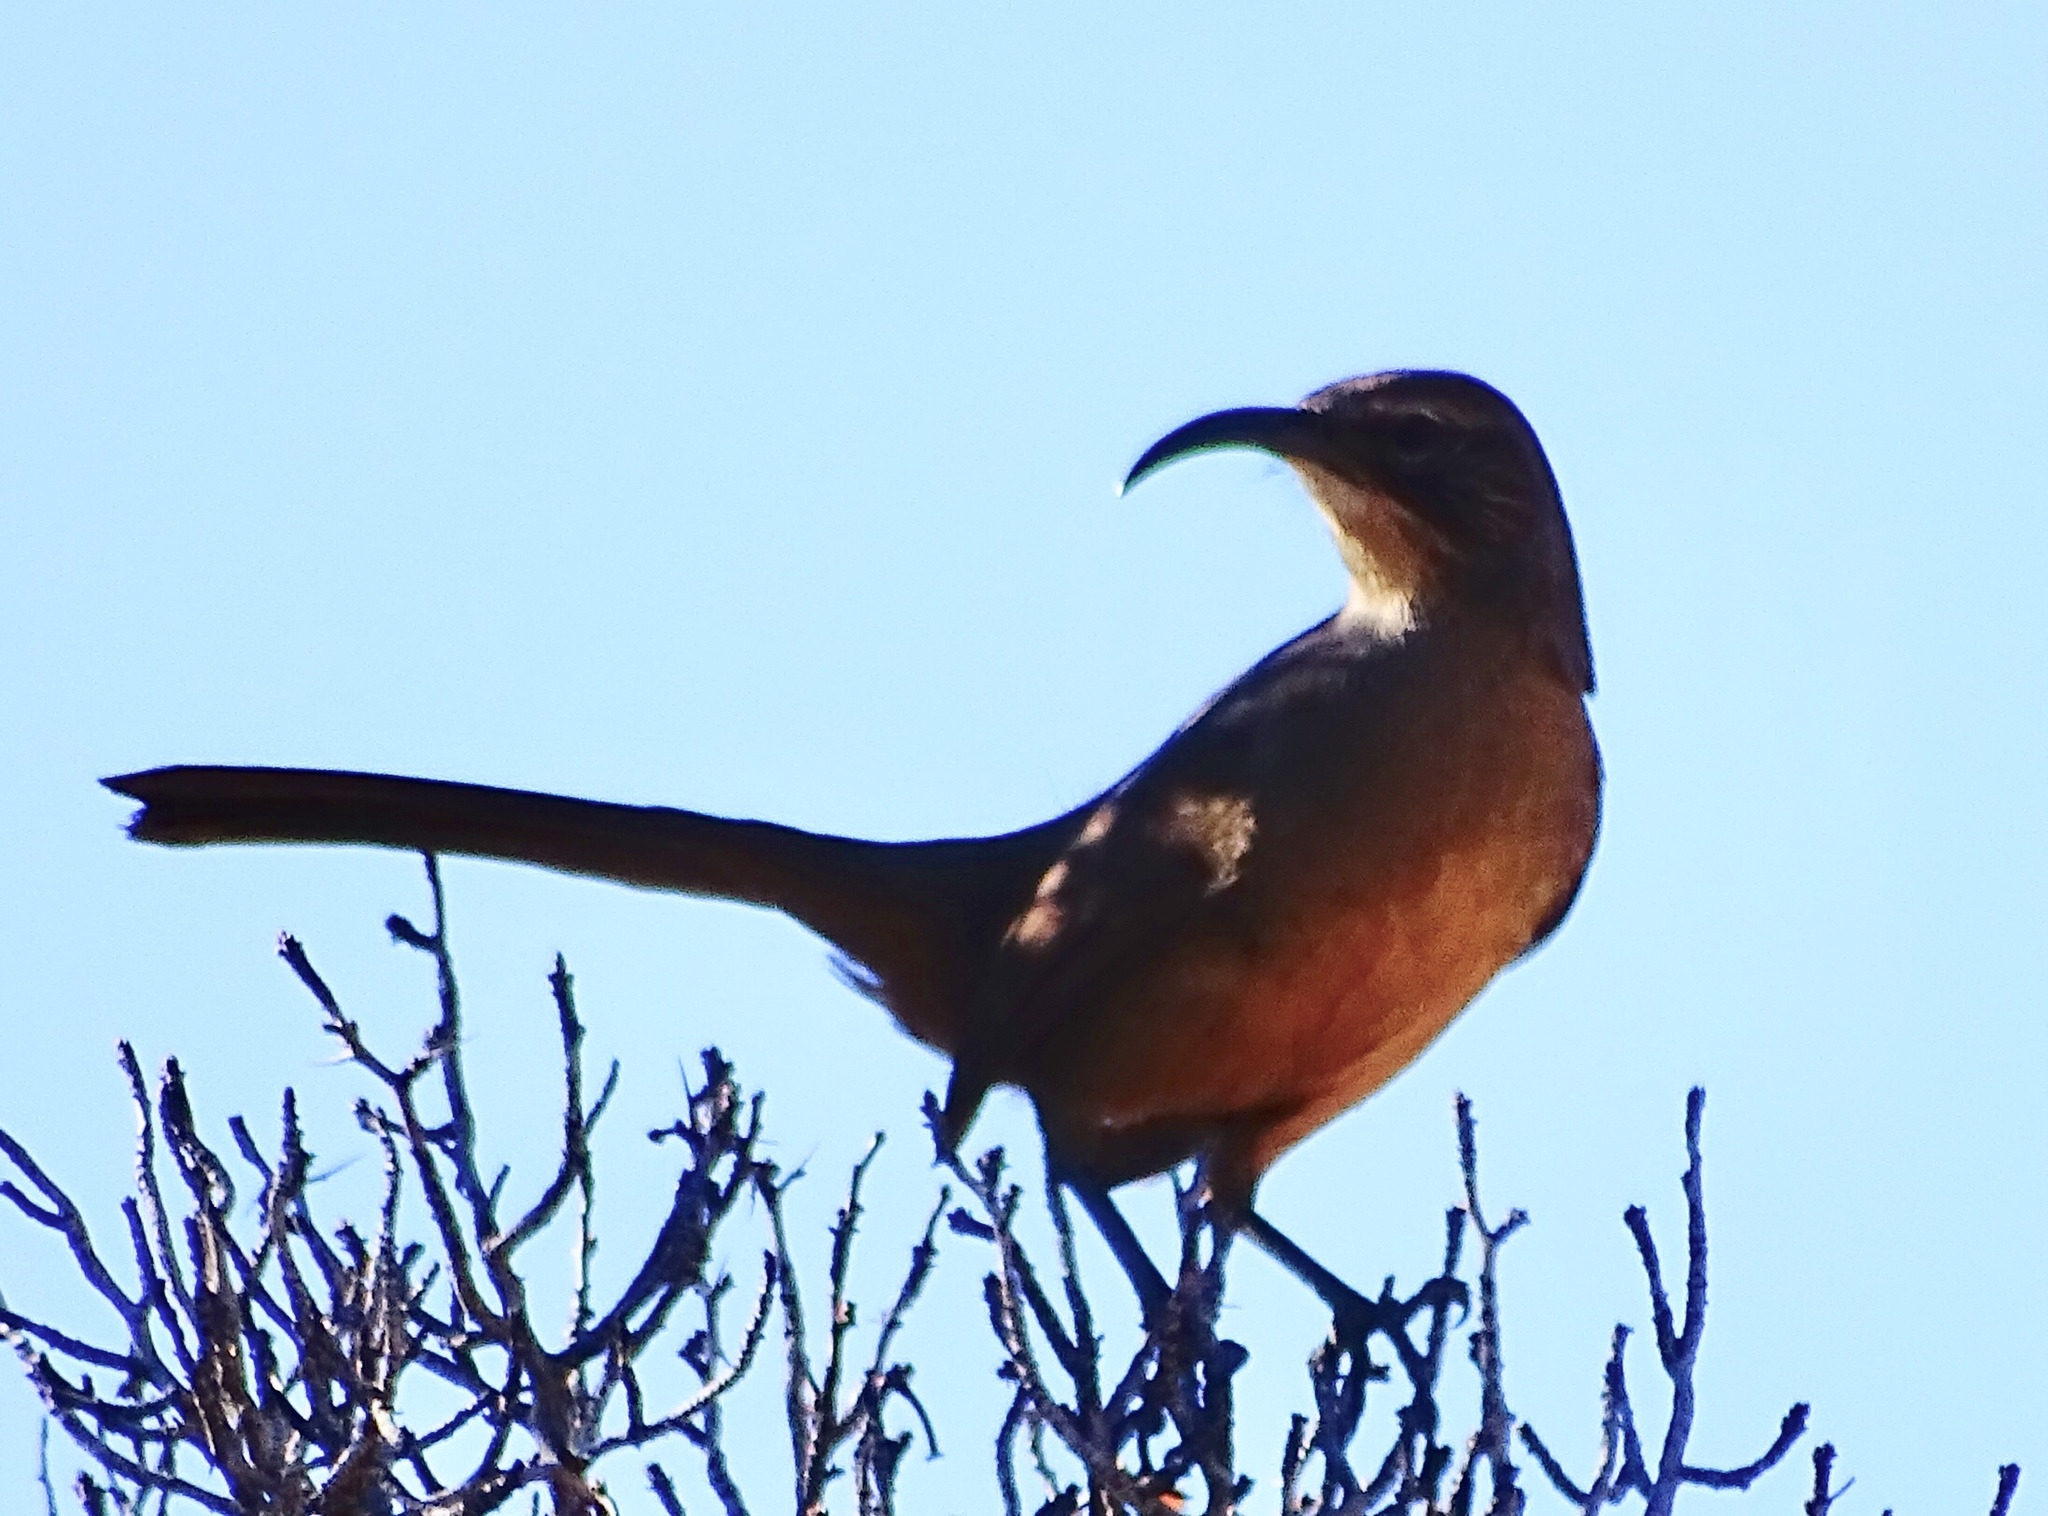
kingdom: Animalia
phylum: Chordata
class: Aves
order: Passeriformes
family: Mimidae
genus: Toxostoma
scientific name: Toxostoma redivivum
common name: California thrasher
